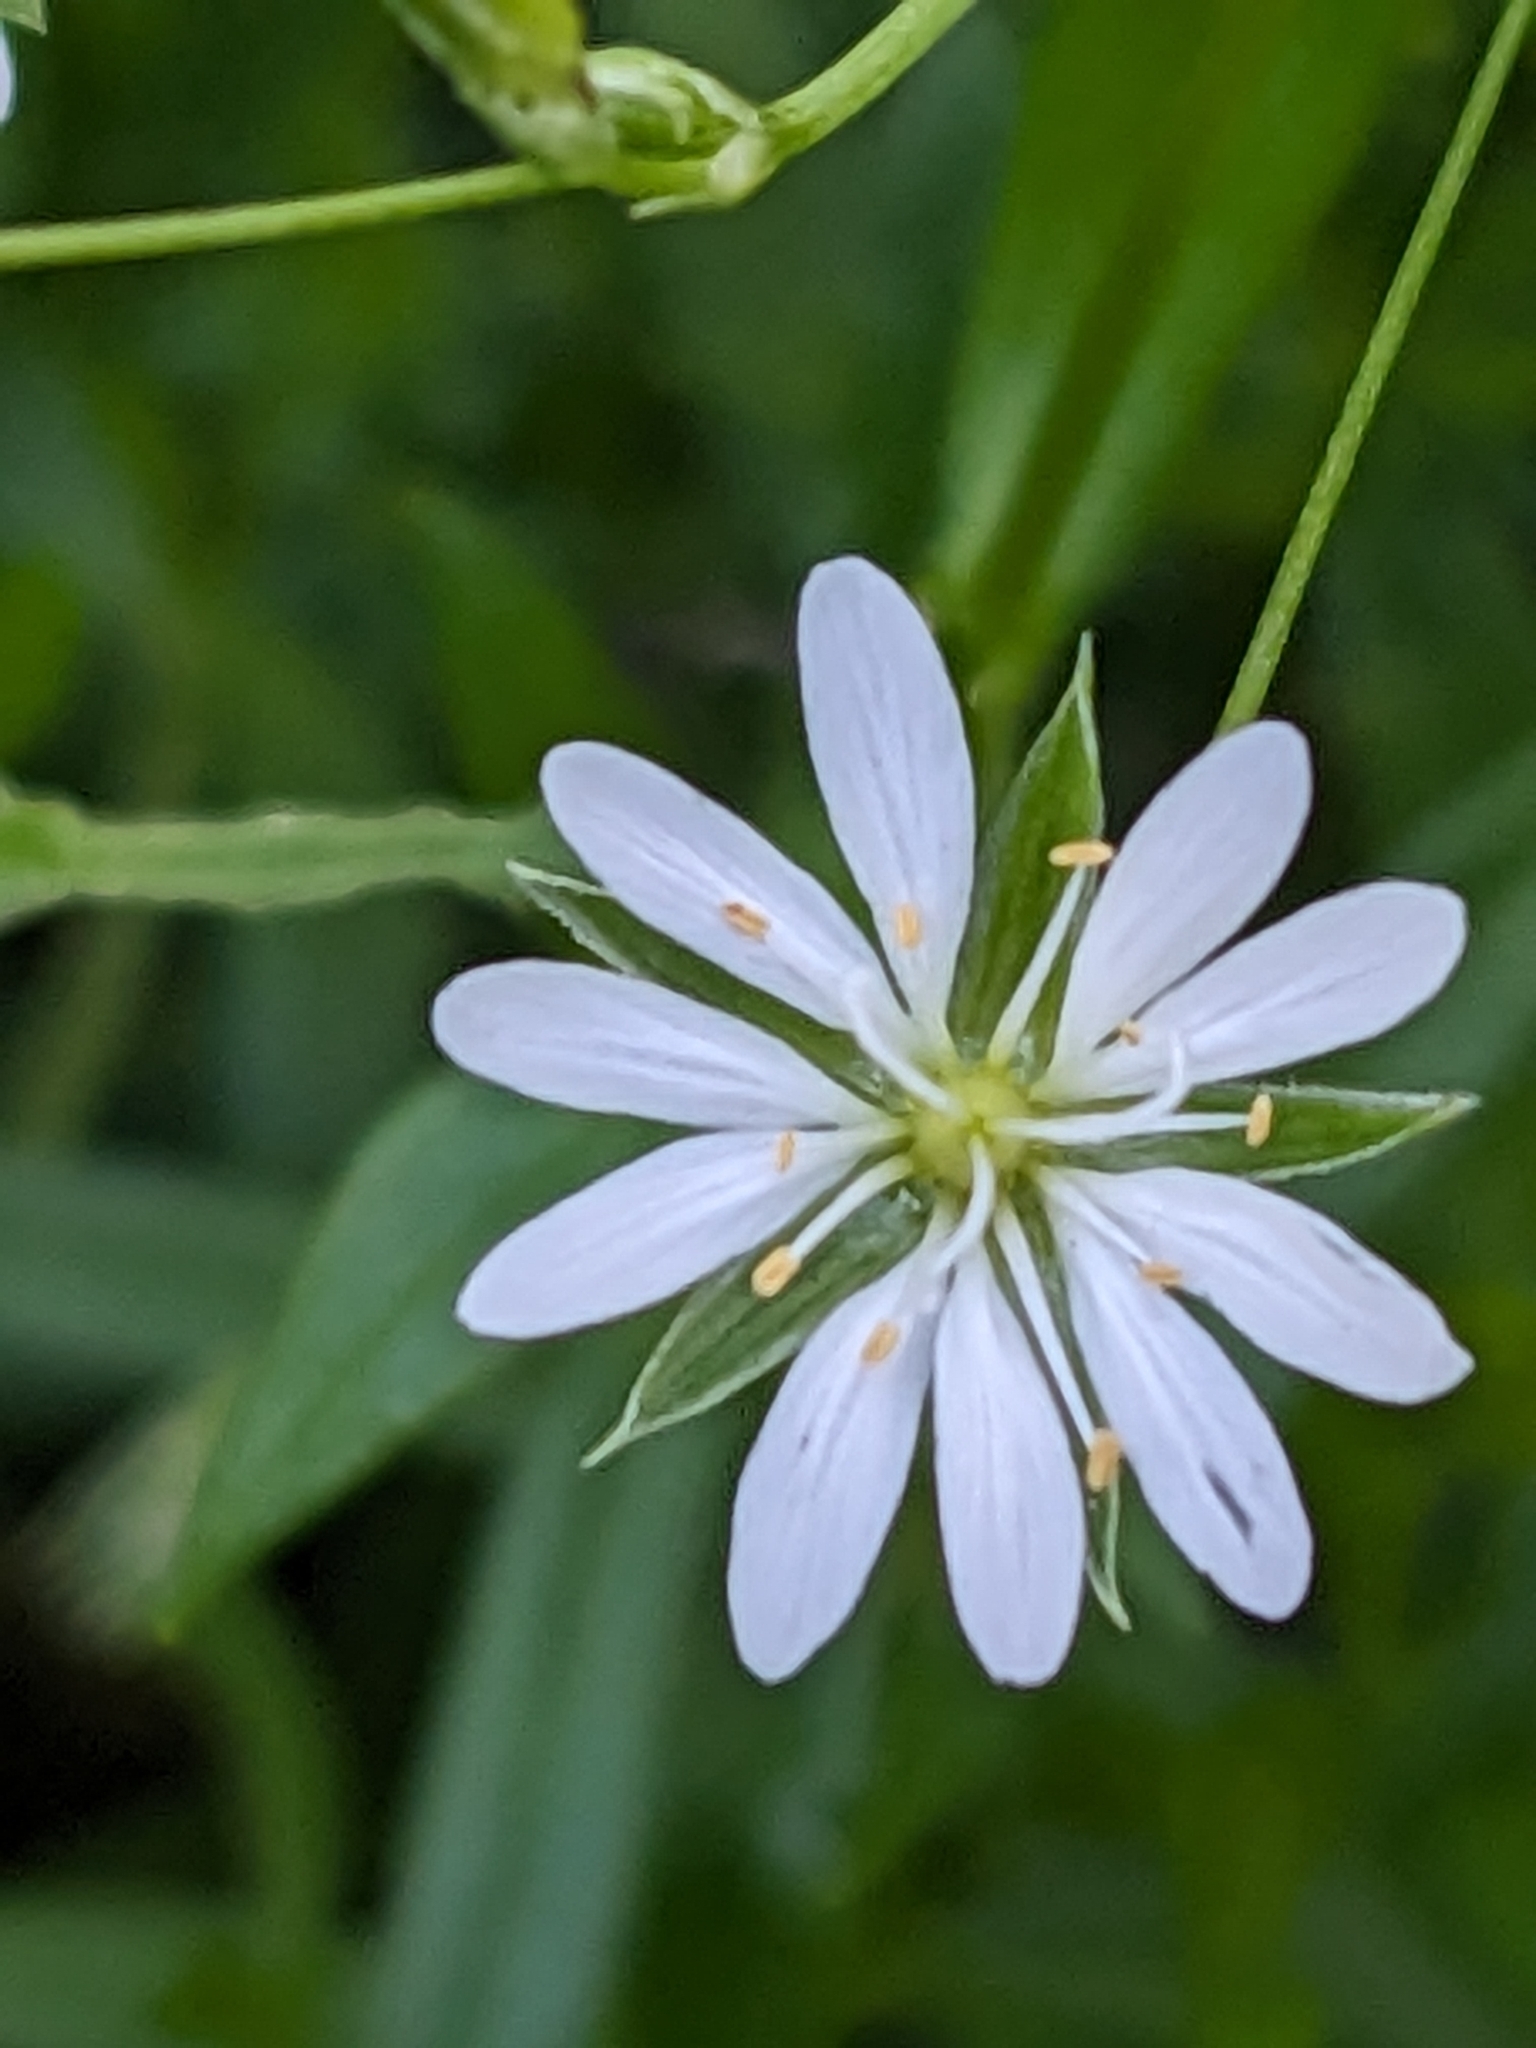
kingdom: Plantae
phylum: Tracheophyta
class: Magnoliopsida
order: Caryophyllales
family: Caryophyllaceae
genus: Stellaria
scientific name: Stellaria graminea
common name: Grass-like starwort
